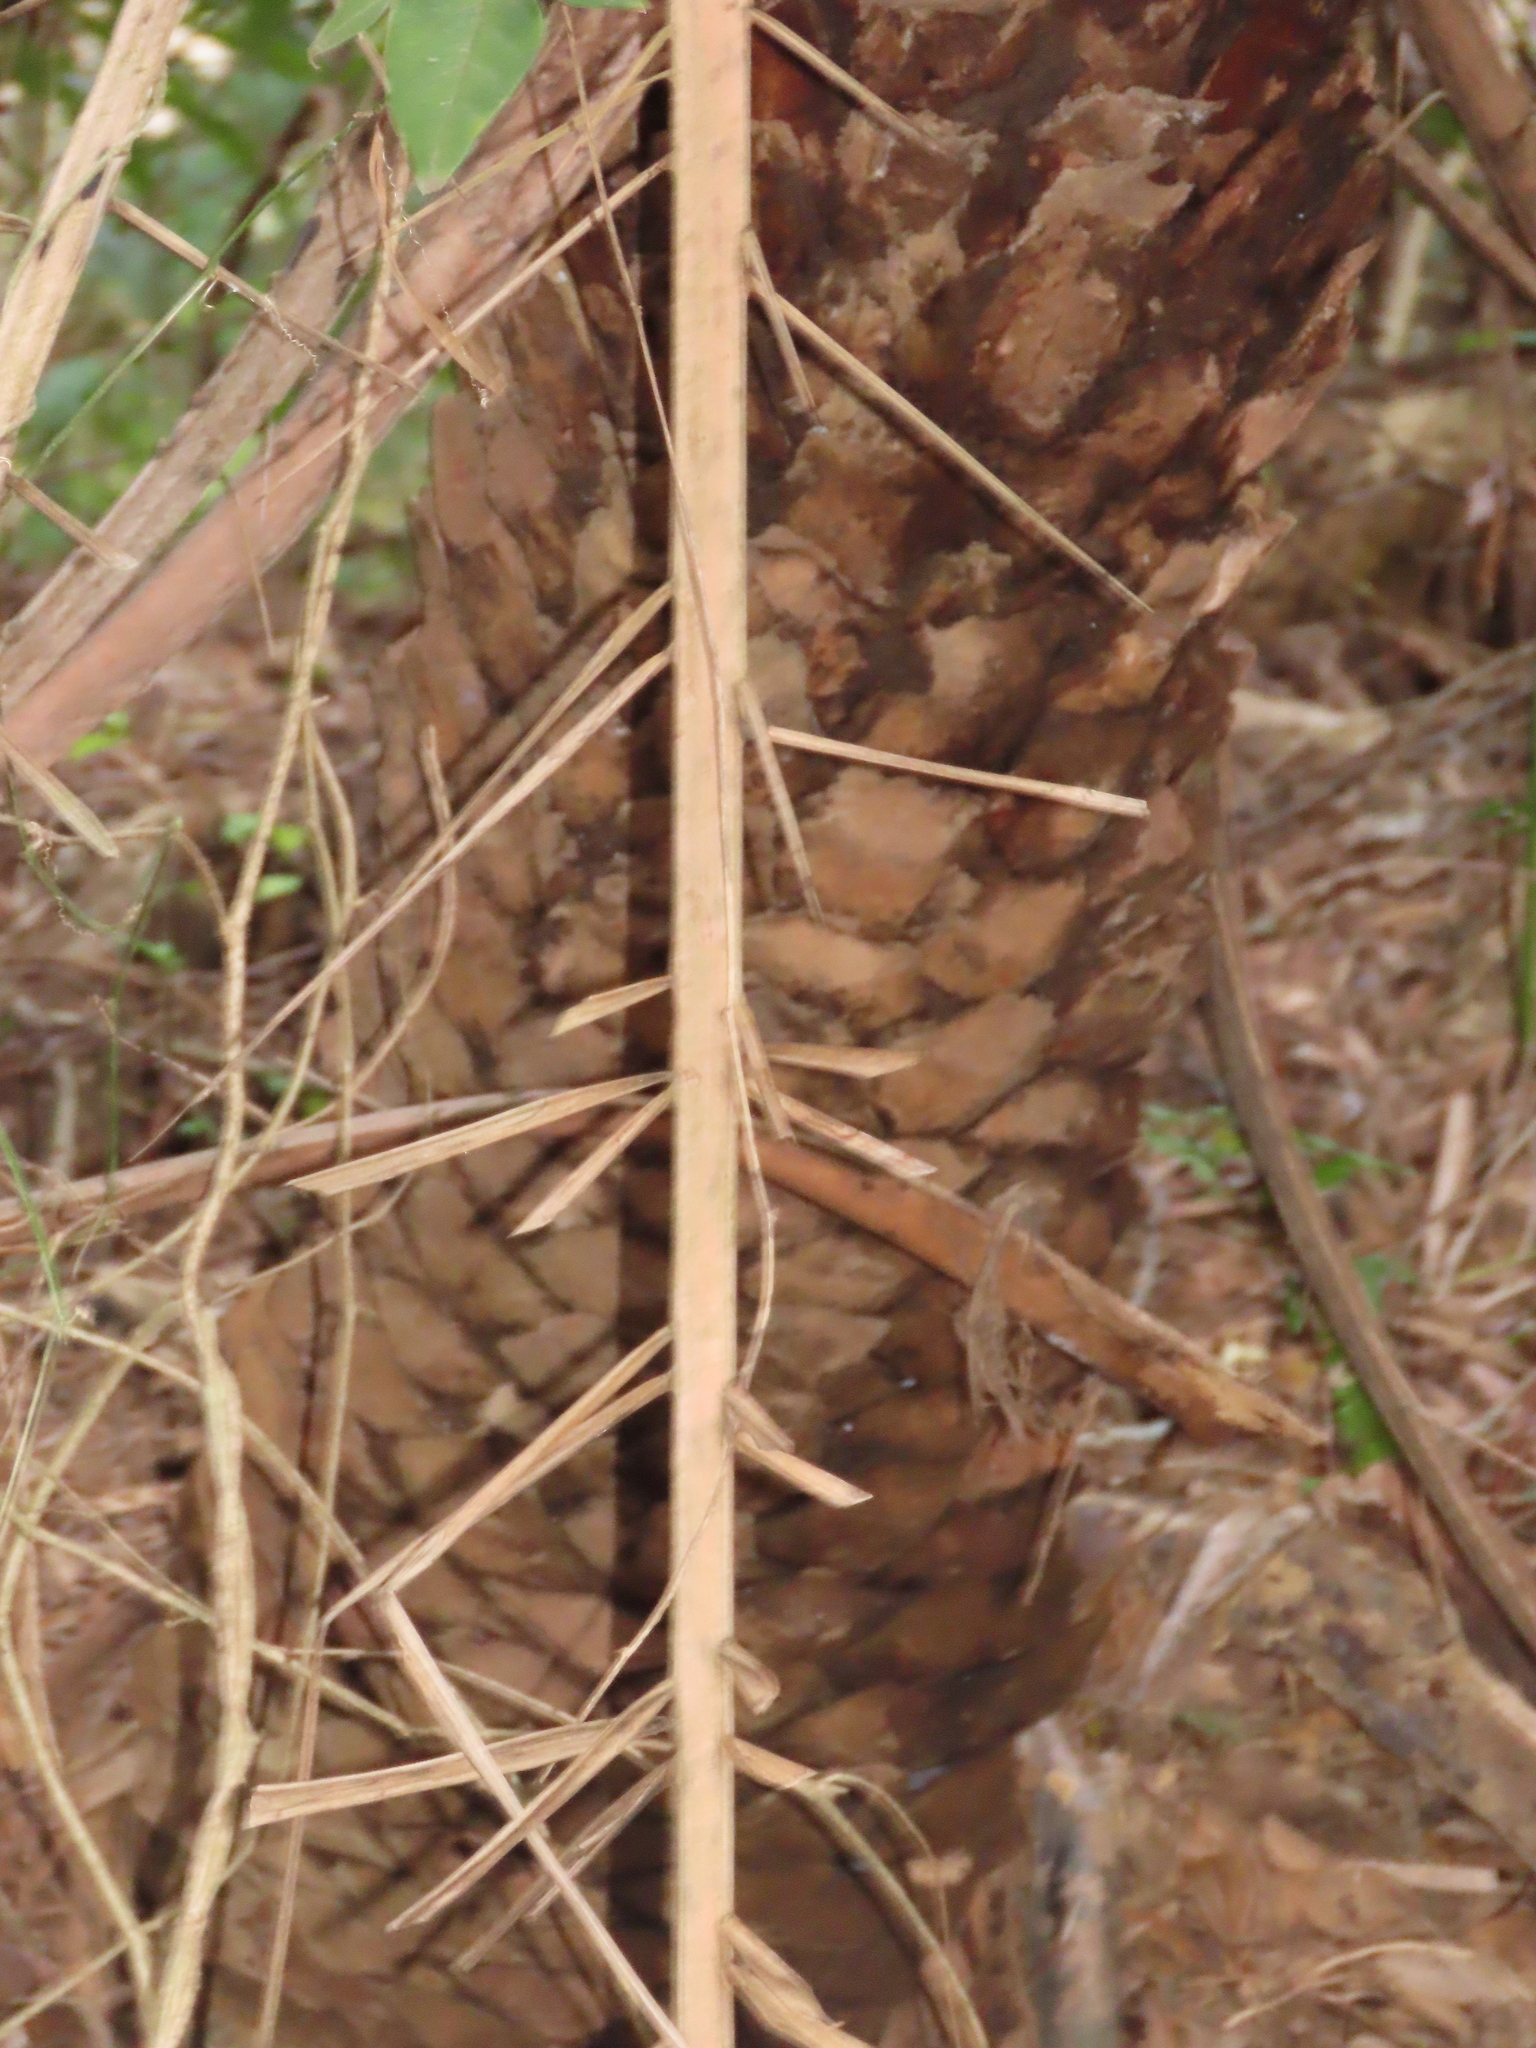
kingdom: Plantae
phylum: Tracheophyta
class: Liliopsida
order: Arecales
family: Arecaceae
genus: Phoenix
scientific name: Phoenix loureiroi
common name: Loureiro's palm
